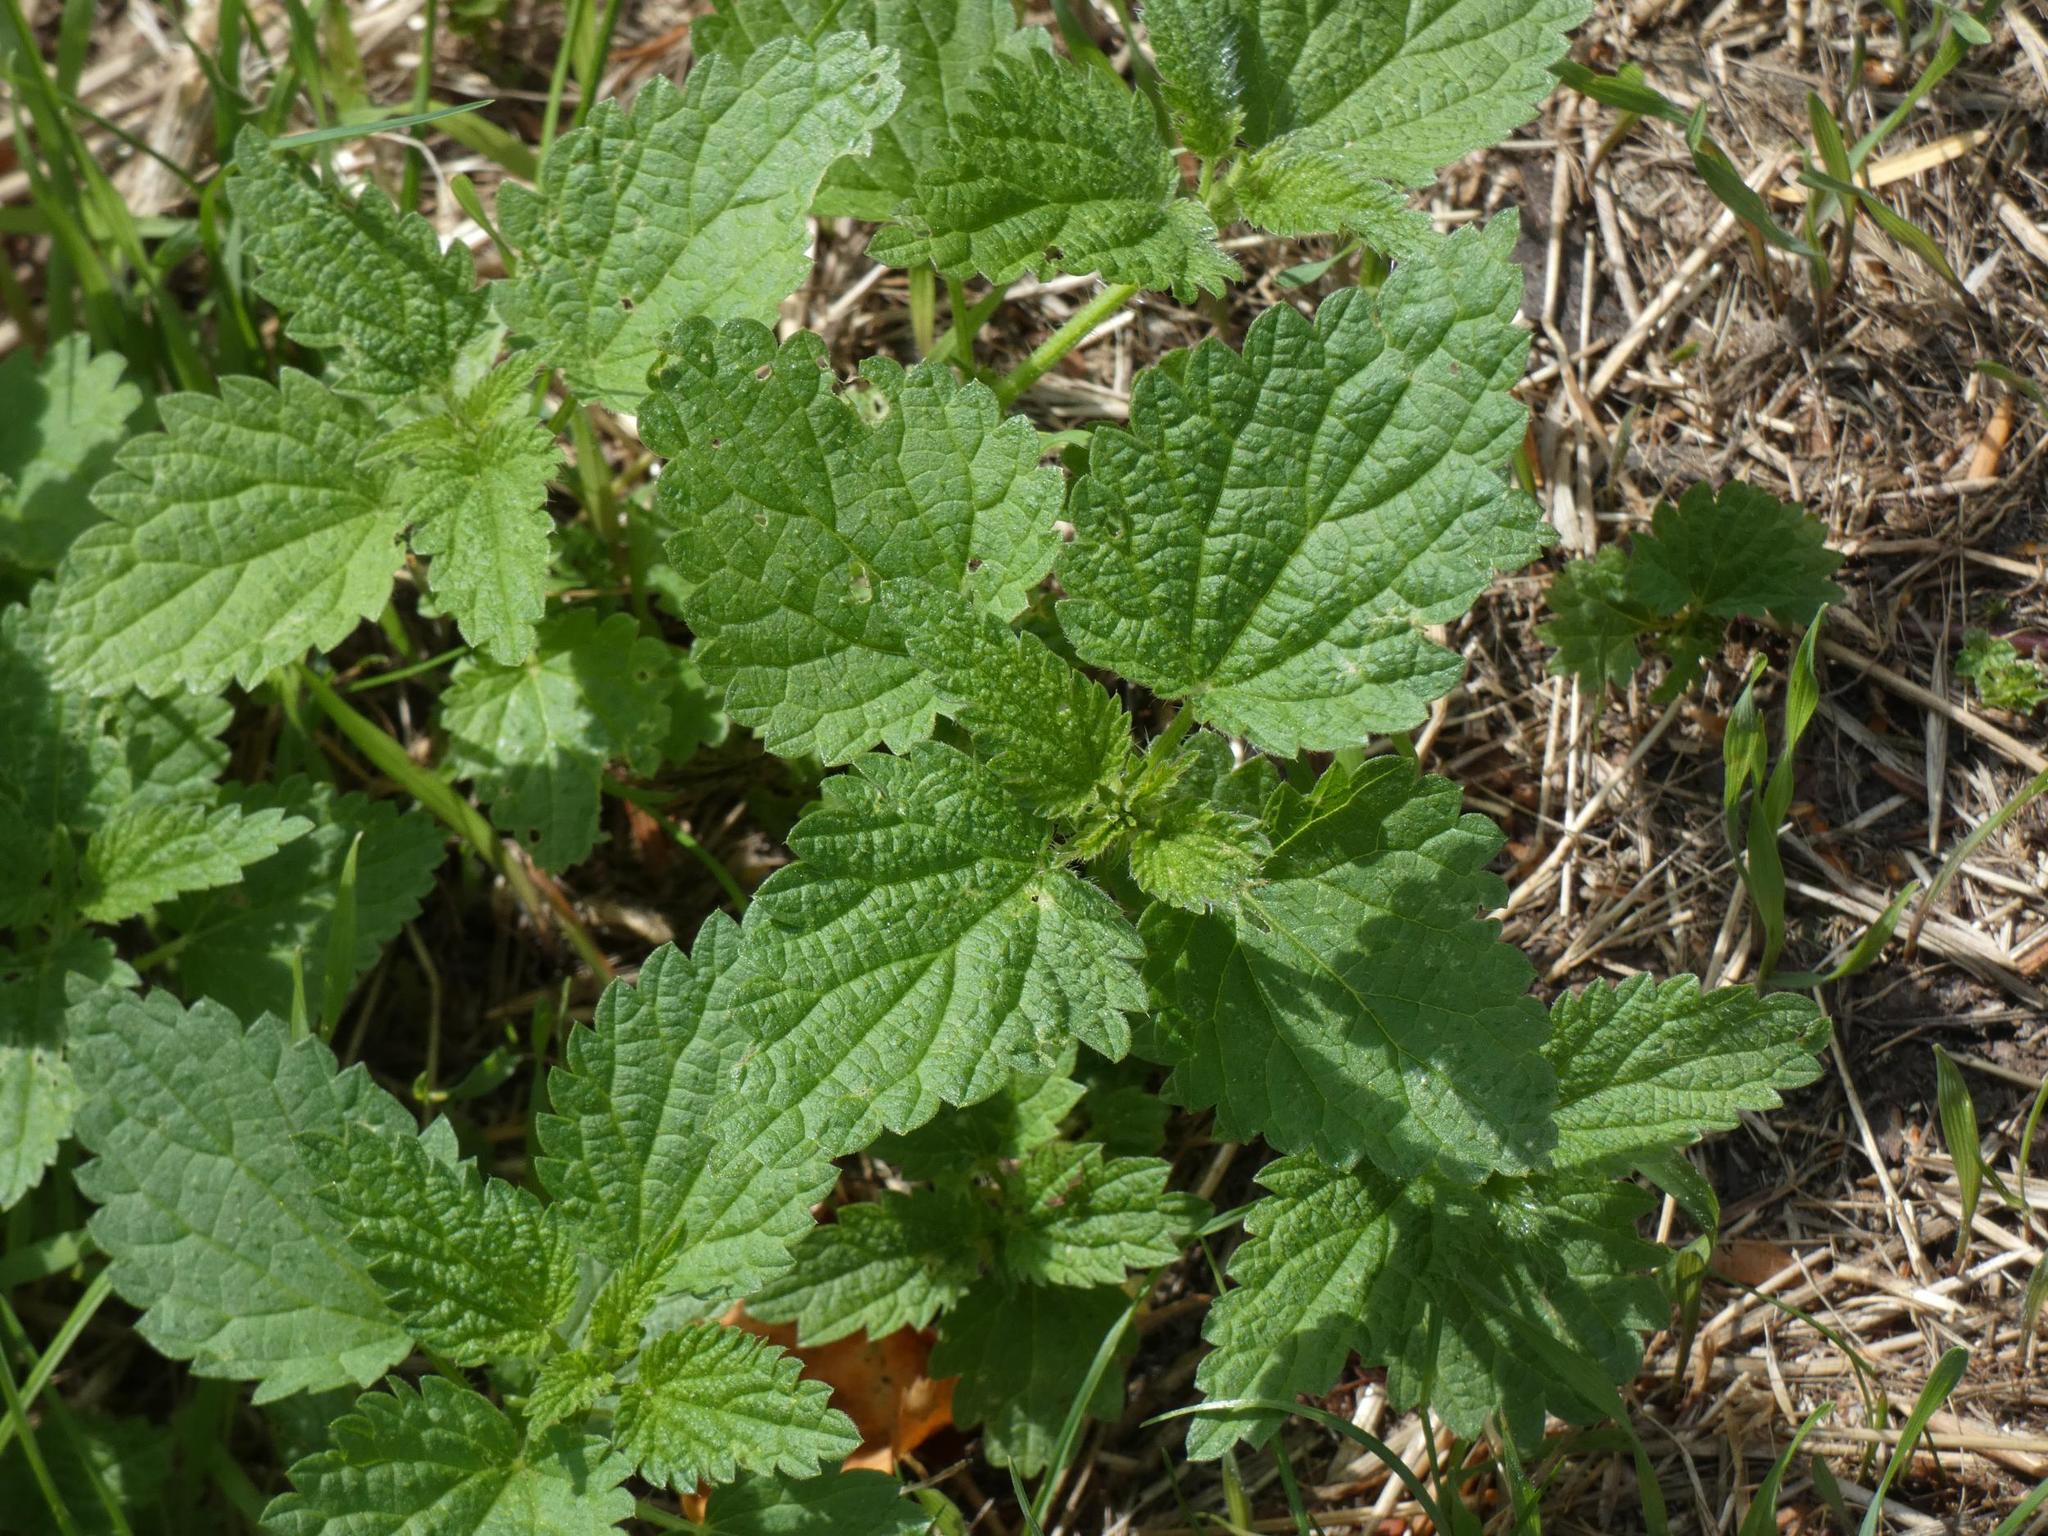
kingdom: Plantae
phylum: Tracheophyta
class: Magnoliopsida
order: Rosales
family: Urticaceae
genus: Urtica
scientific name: Urtica dioica
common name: Common nettle
